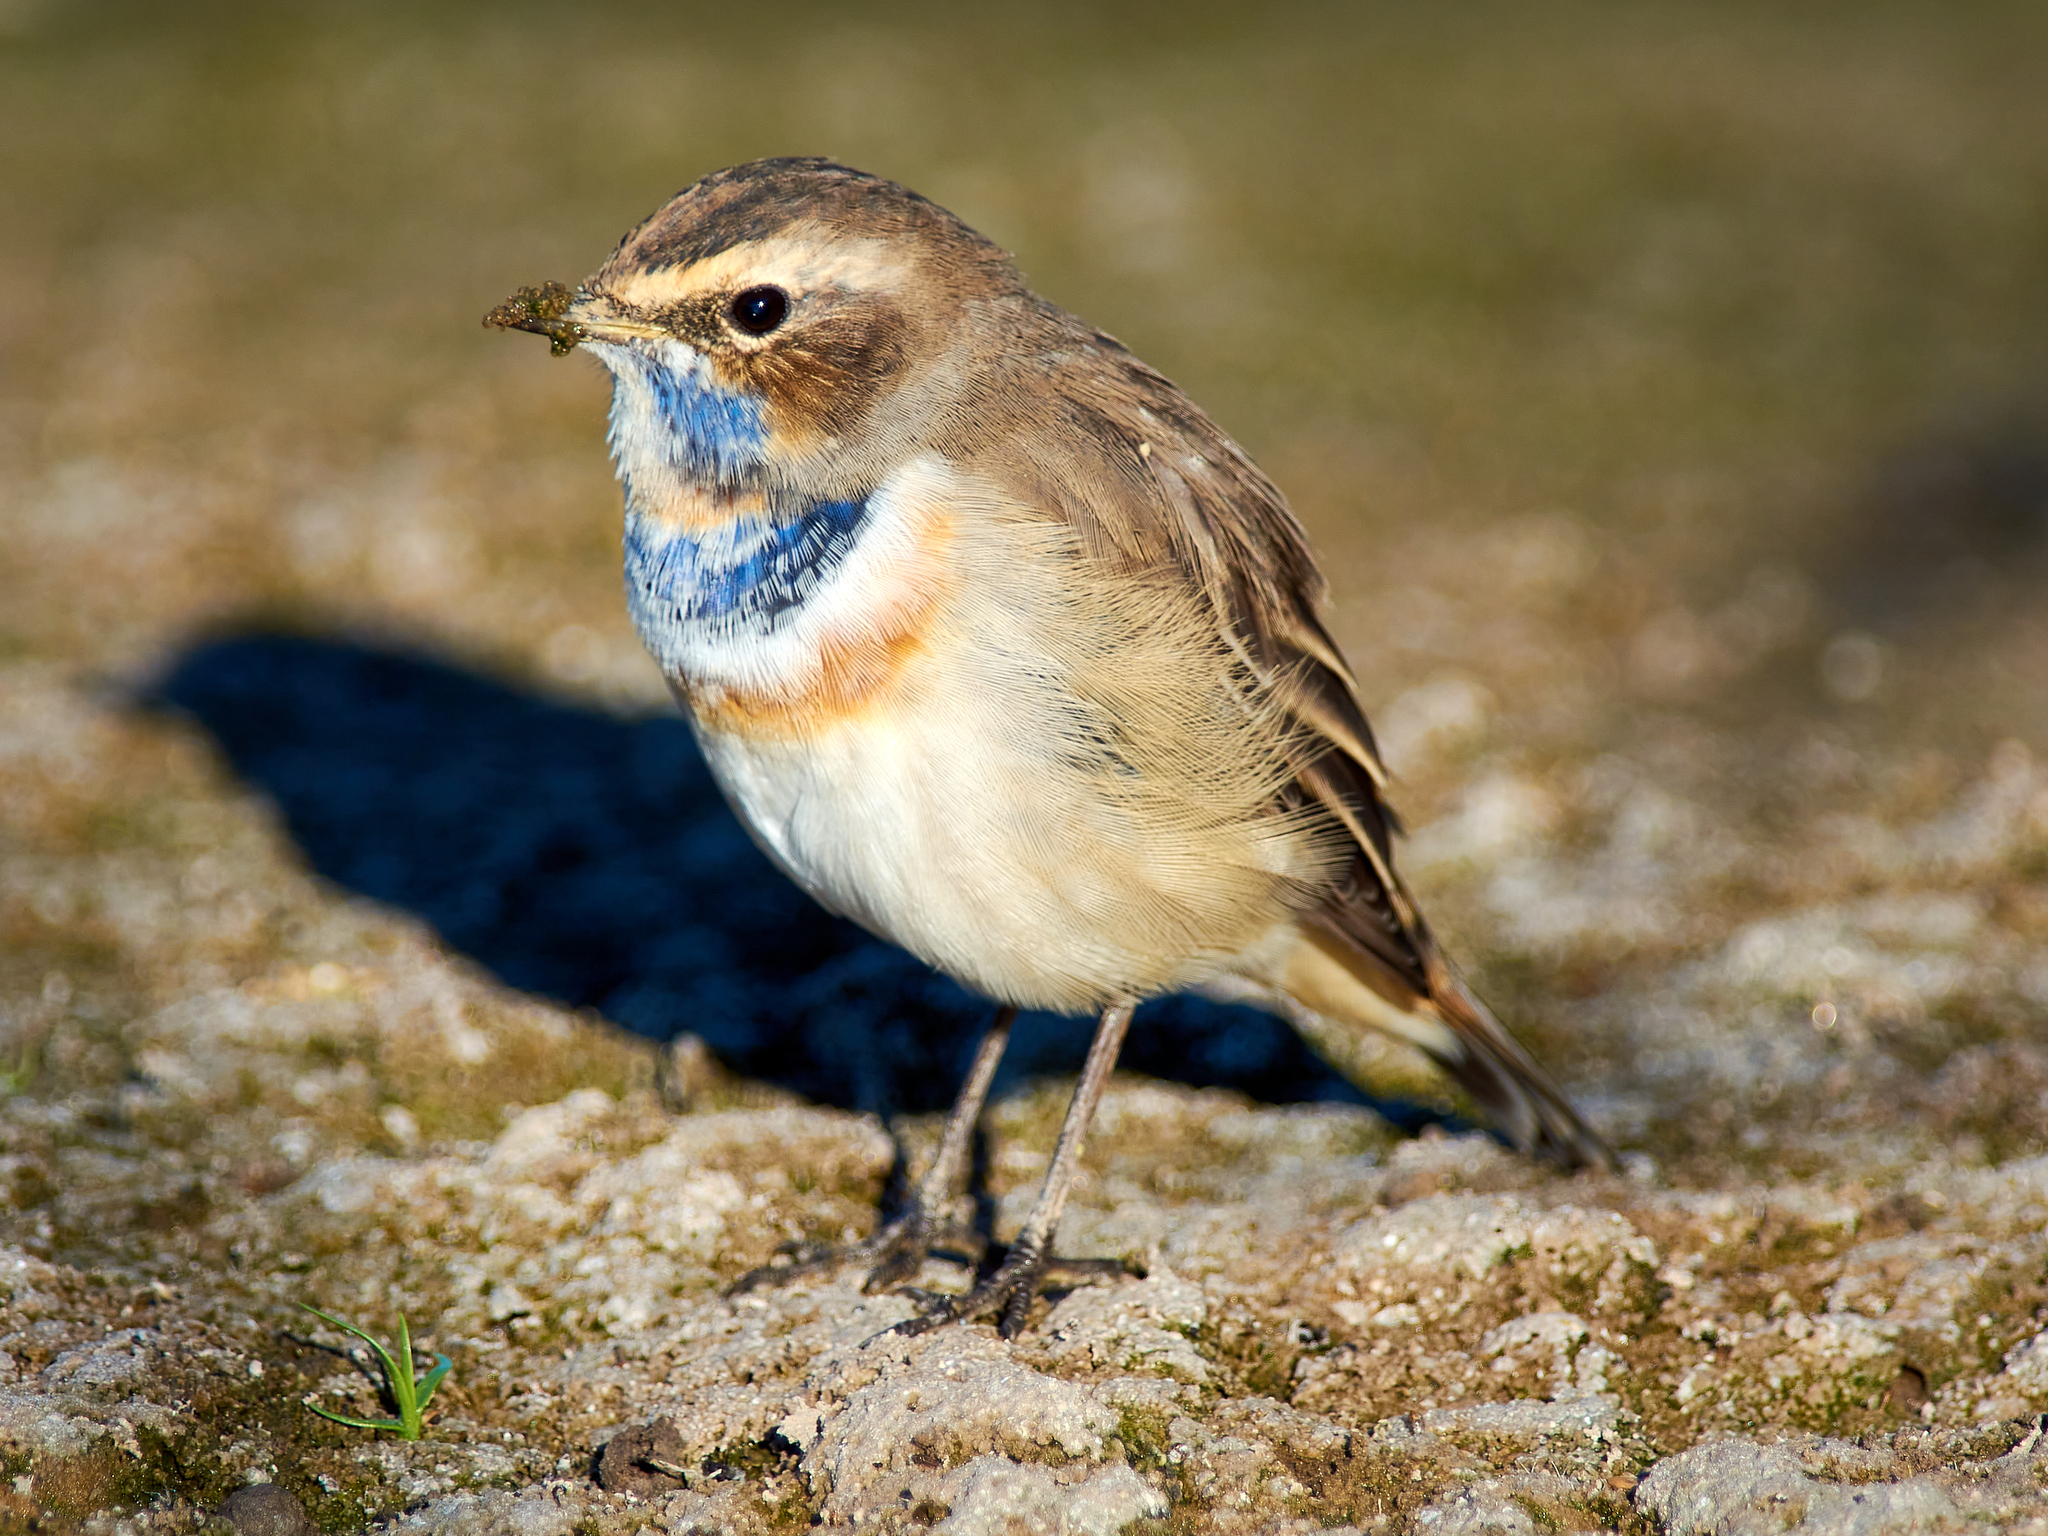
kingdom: Animalia
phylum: Chordata
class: Aves
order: Passeriformes
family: Muscicapidae
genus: Luscinia
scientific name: Luscinia svecica
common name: Bluethroat
